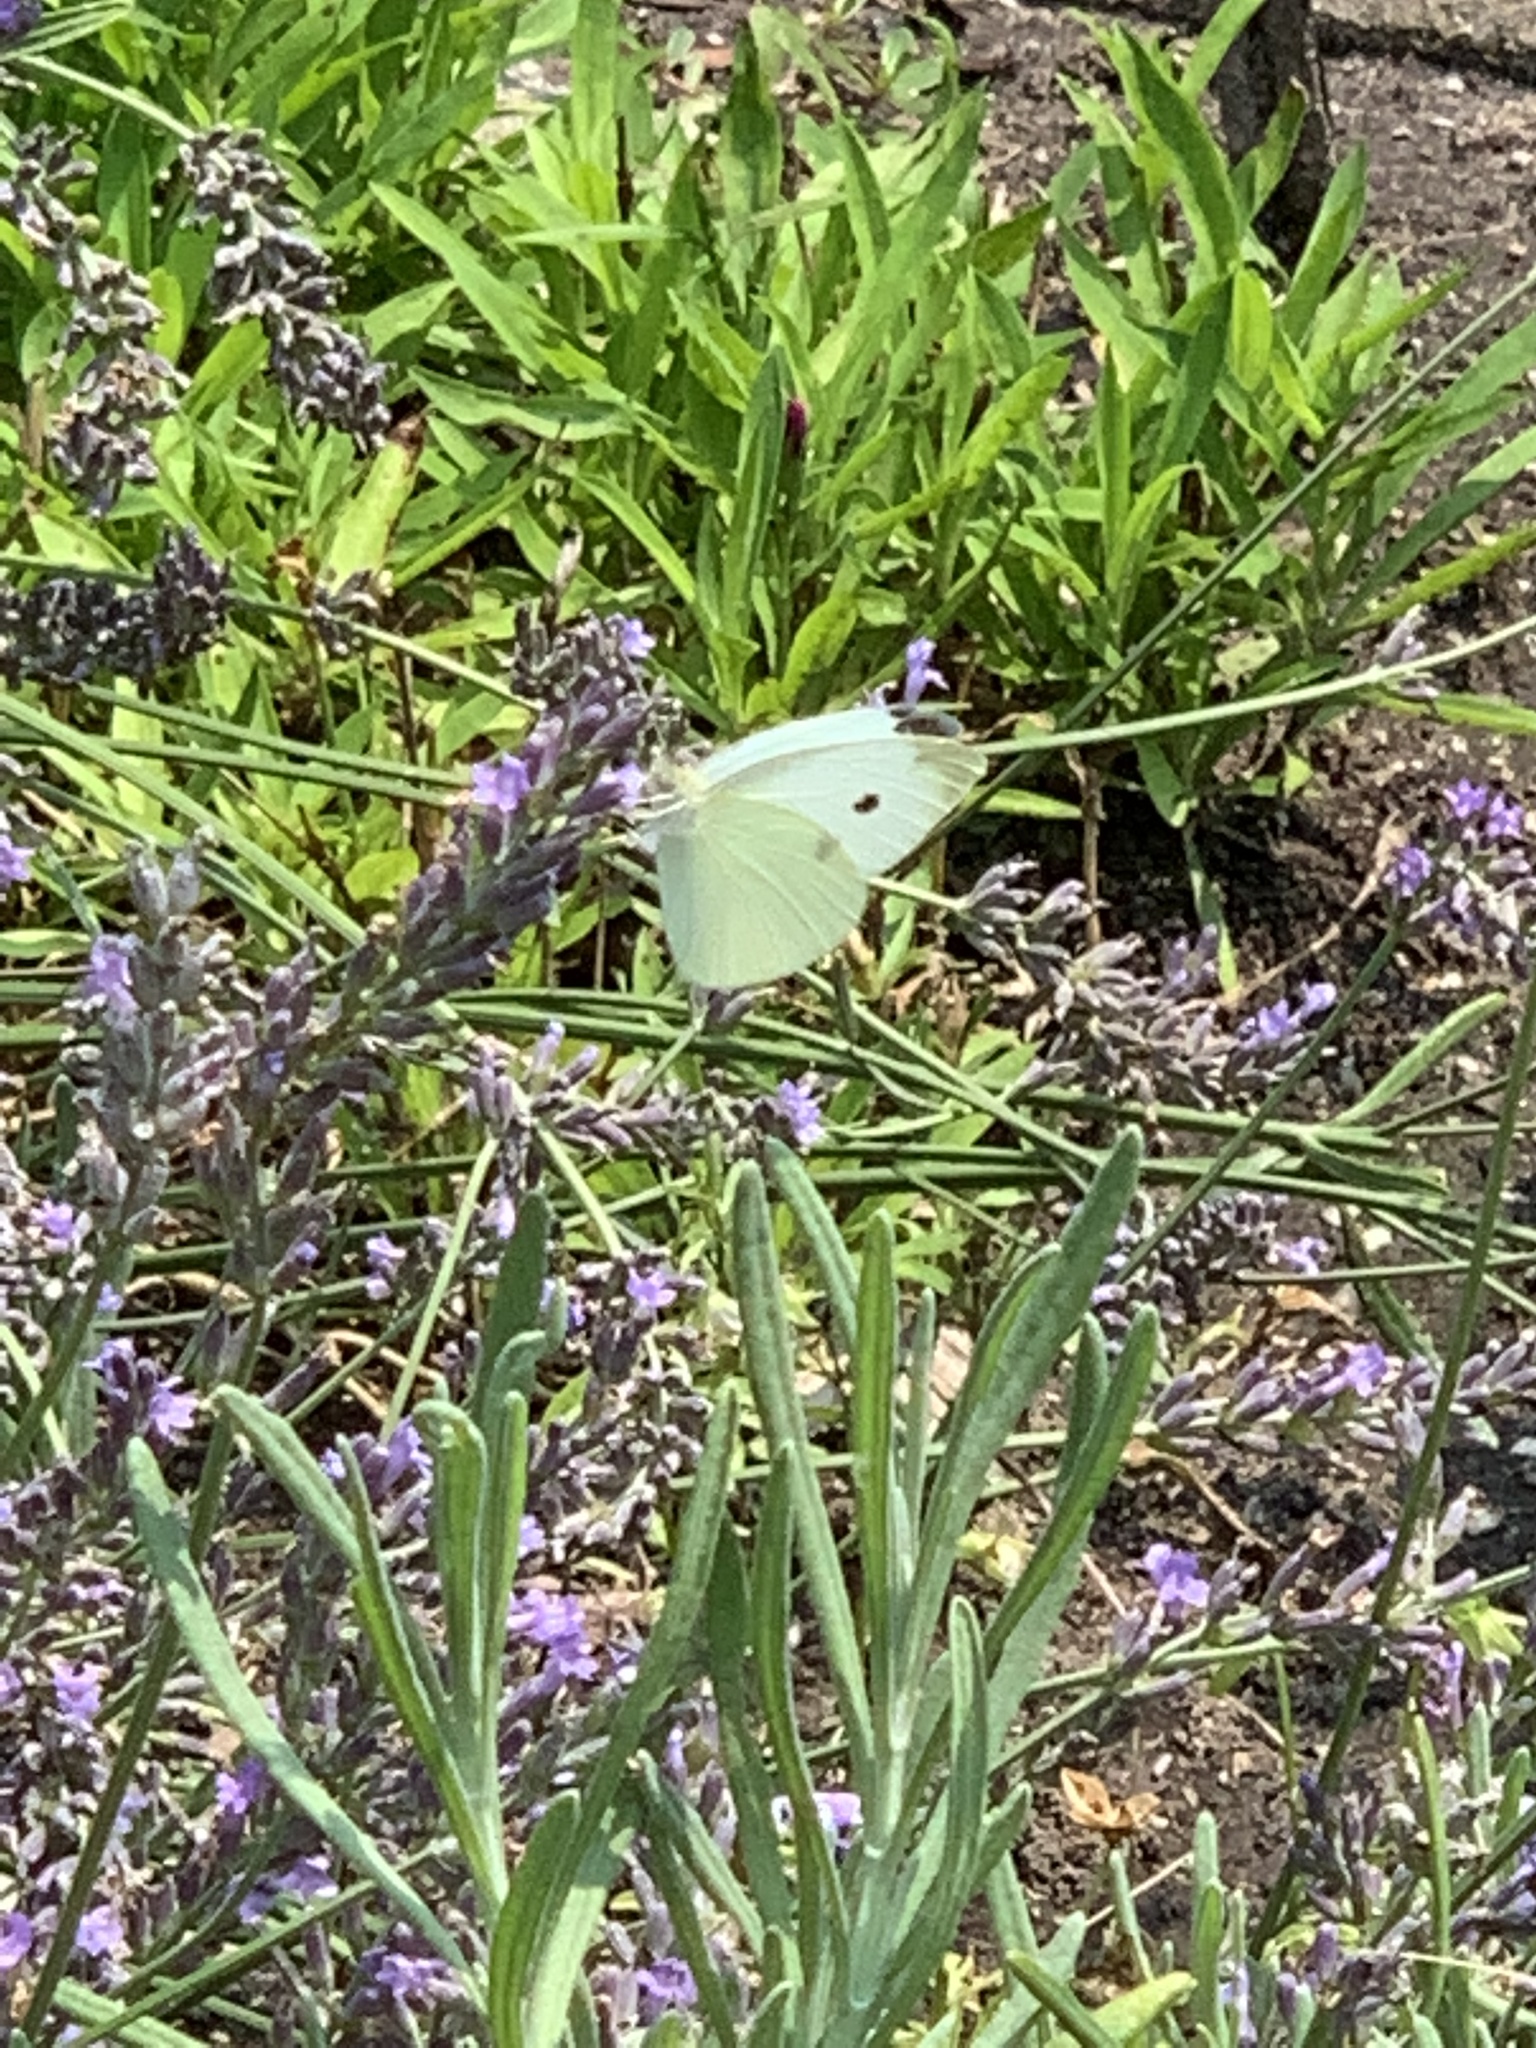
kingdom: Animalia
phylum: Arthropoda
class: Insecta
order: Lepidoptera
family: Pieridae
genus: Pieris
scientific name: Pieris rapae
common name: Small white
